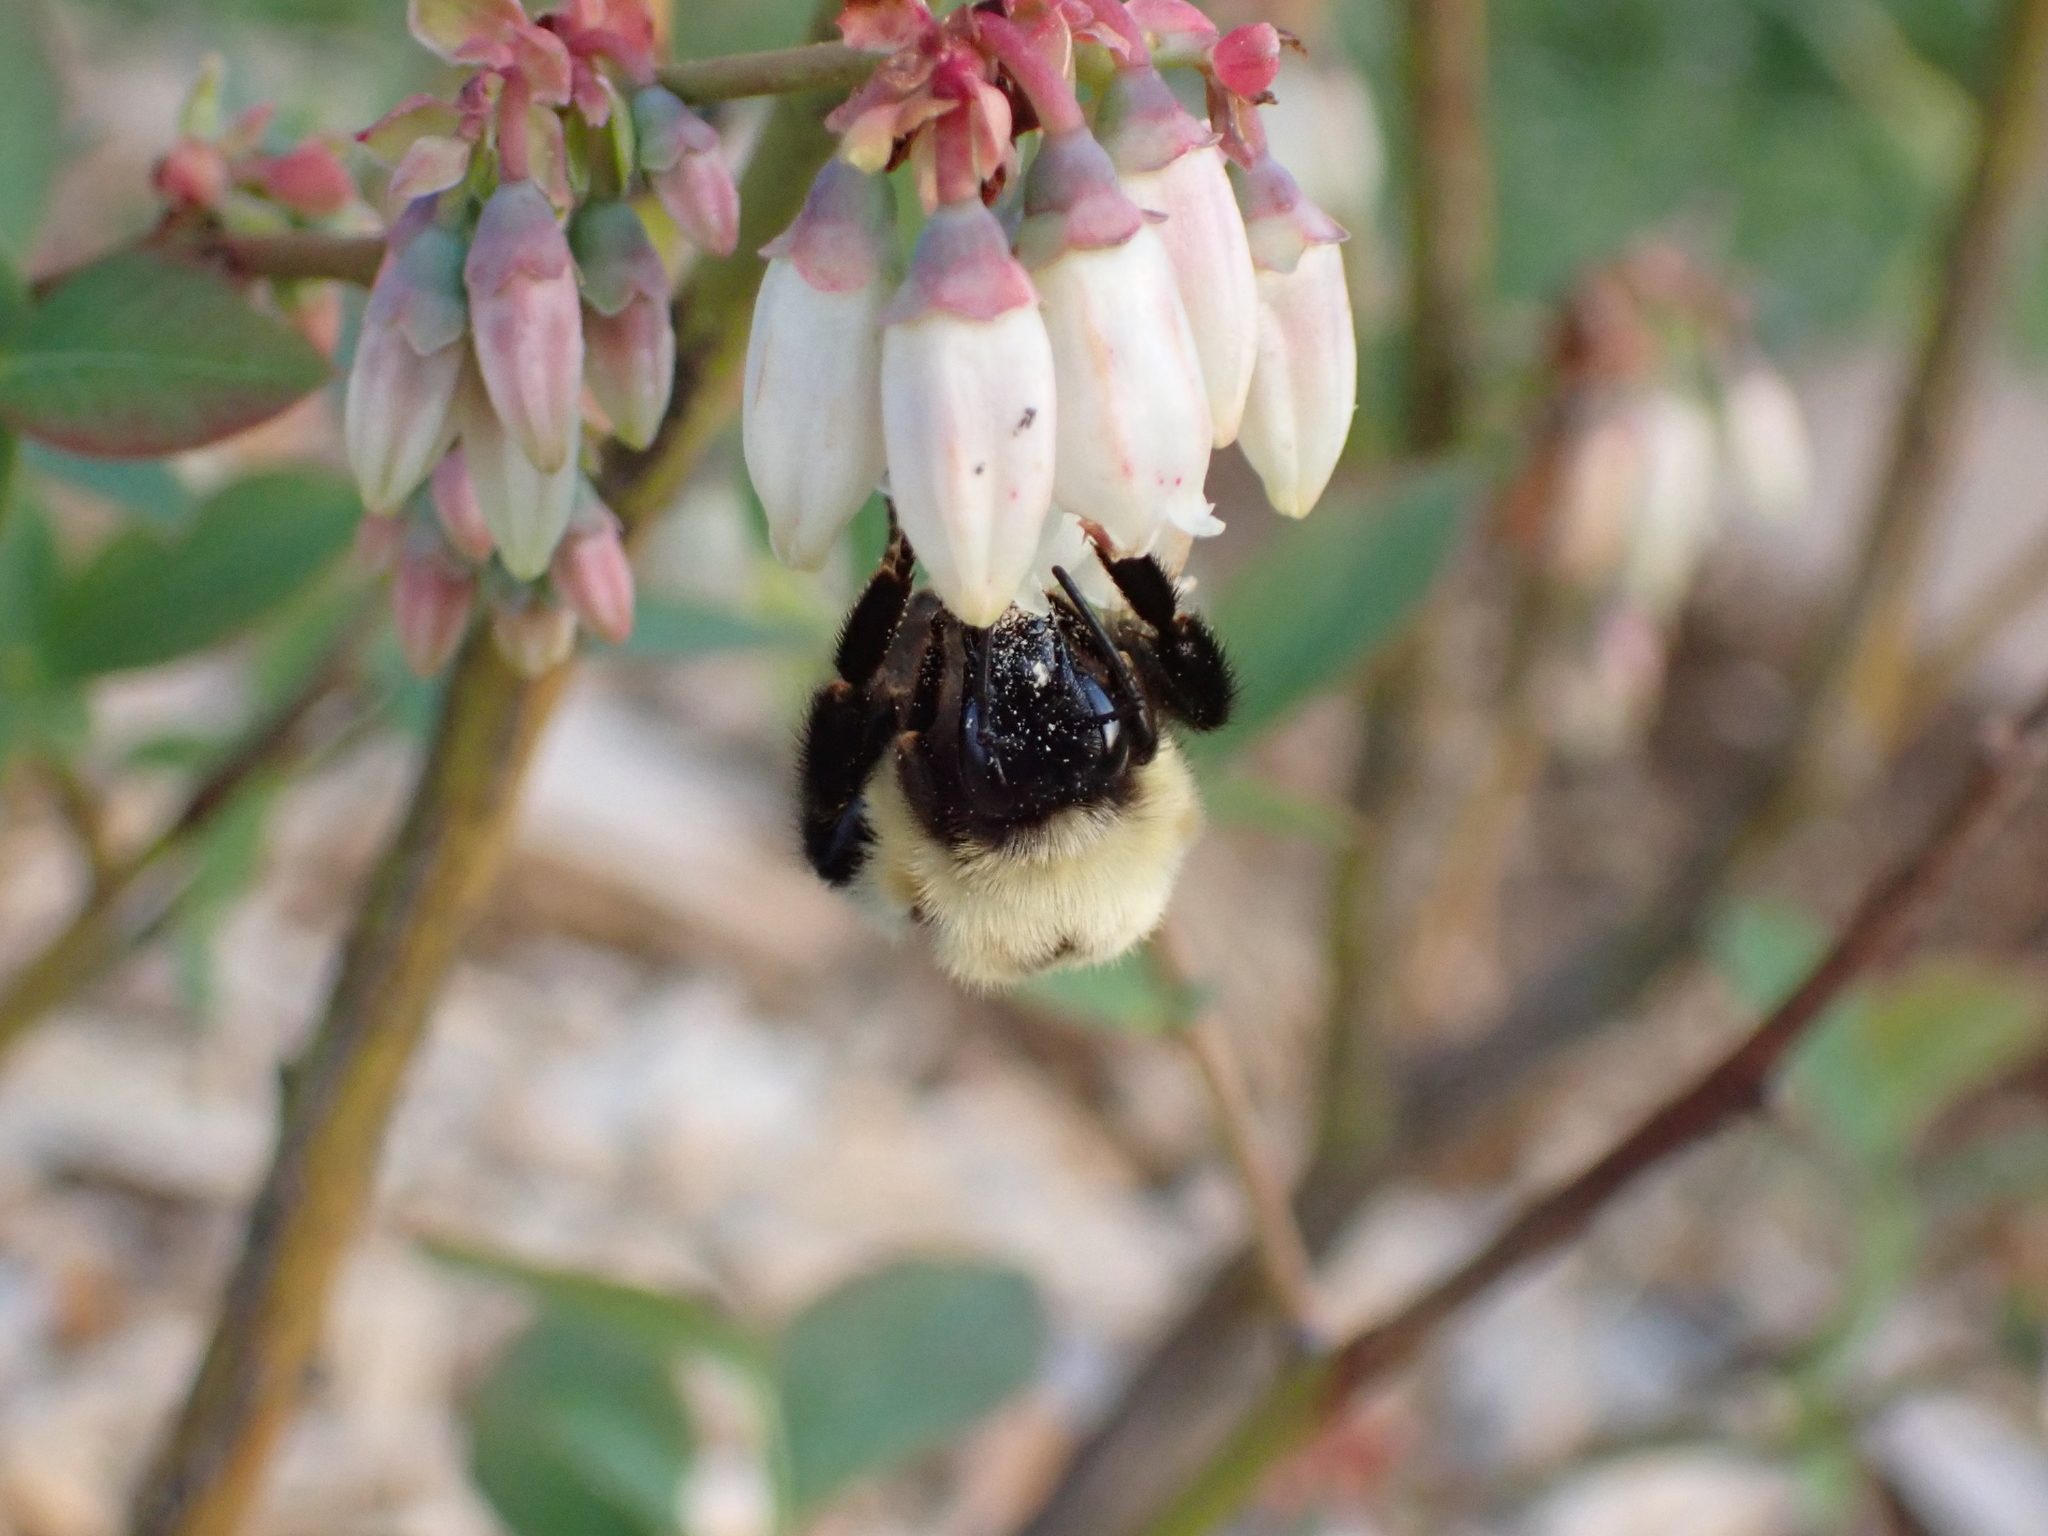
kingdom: Animalia
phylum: Arthropoda
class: Insecta
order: Hymenoptera
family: Apidae
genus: Bombus
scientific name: Bombus bimaculatus
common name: Two-spotted bumble bee
